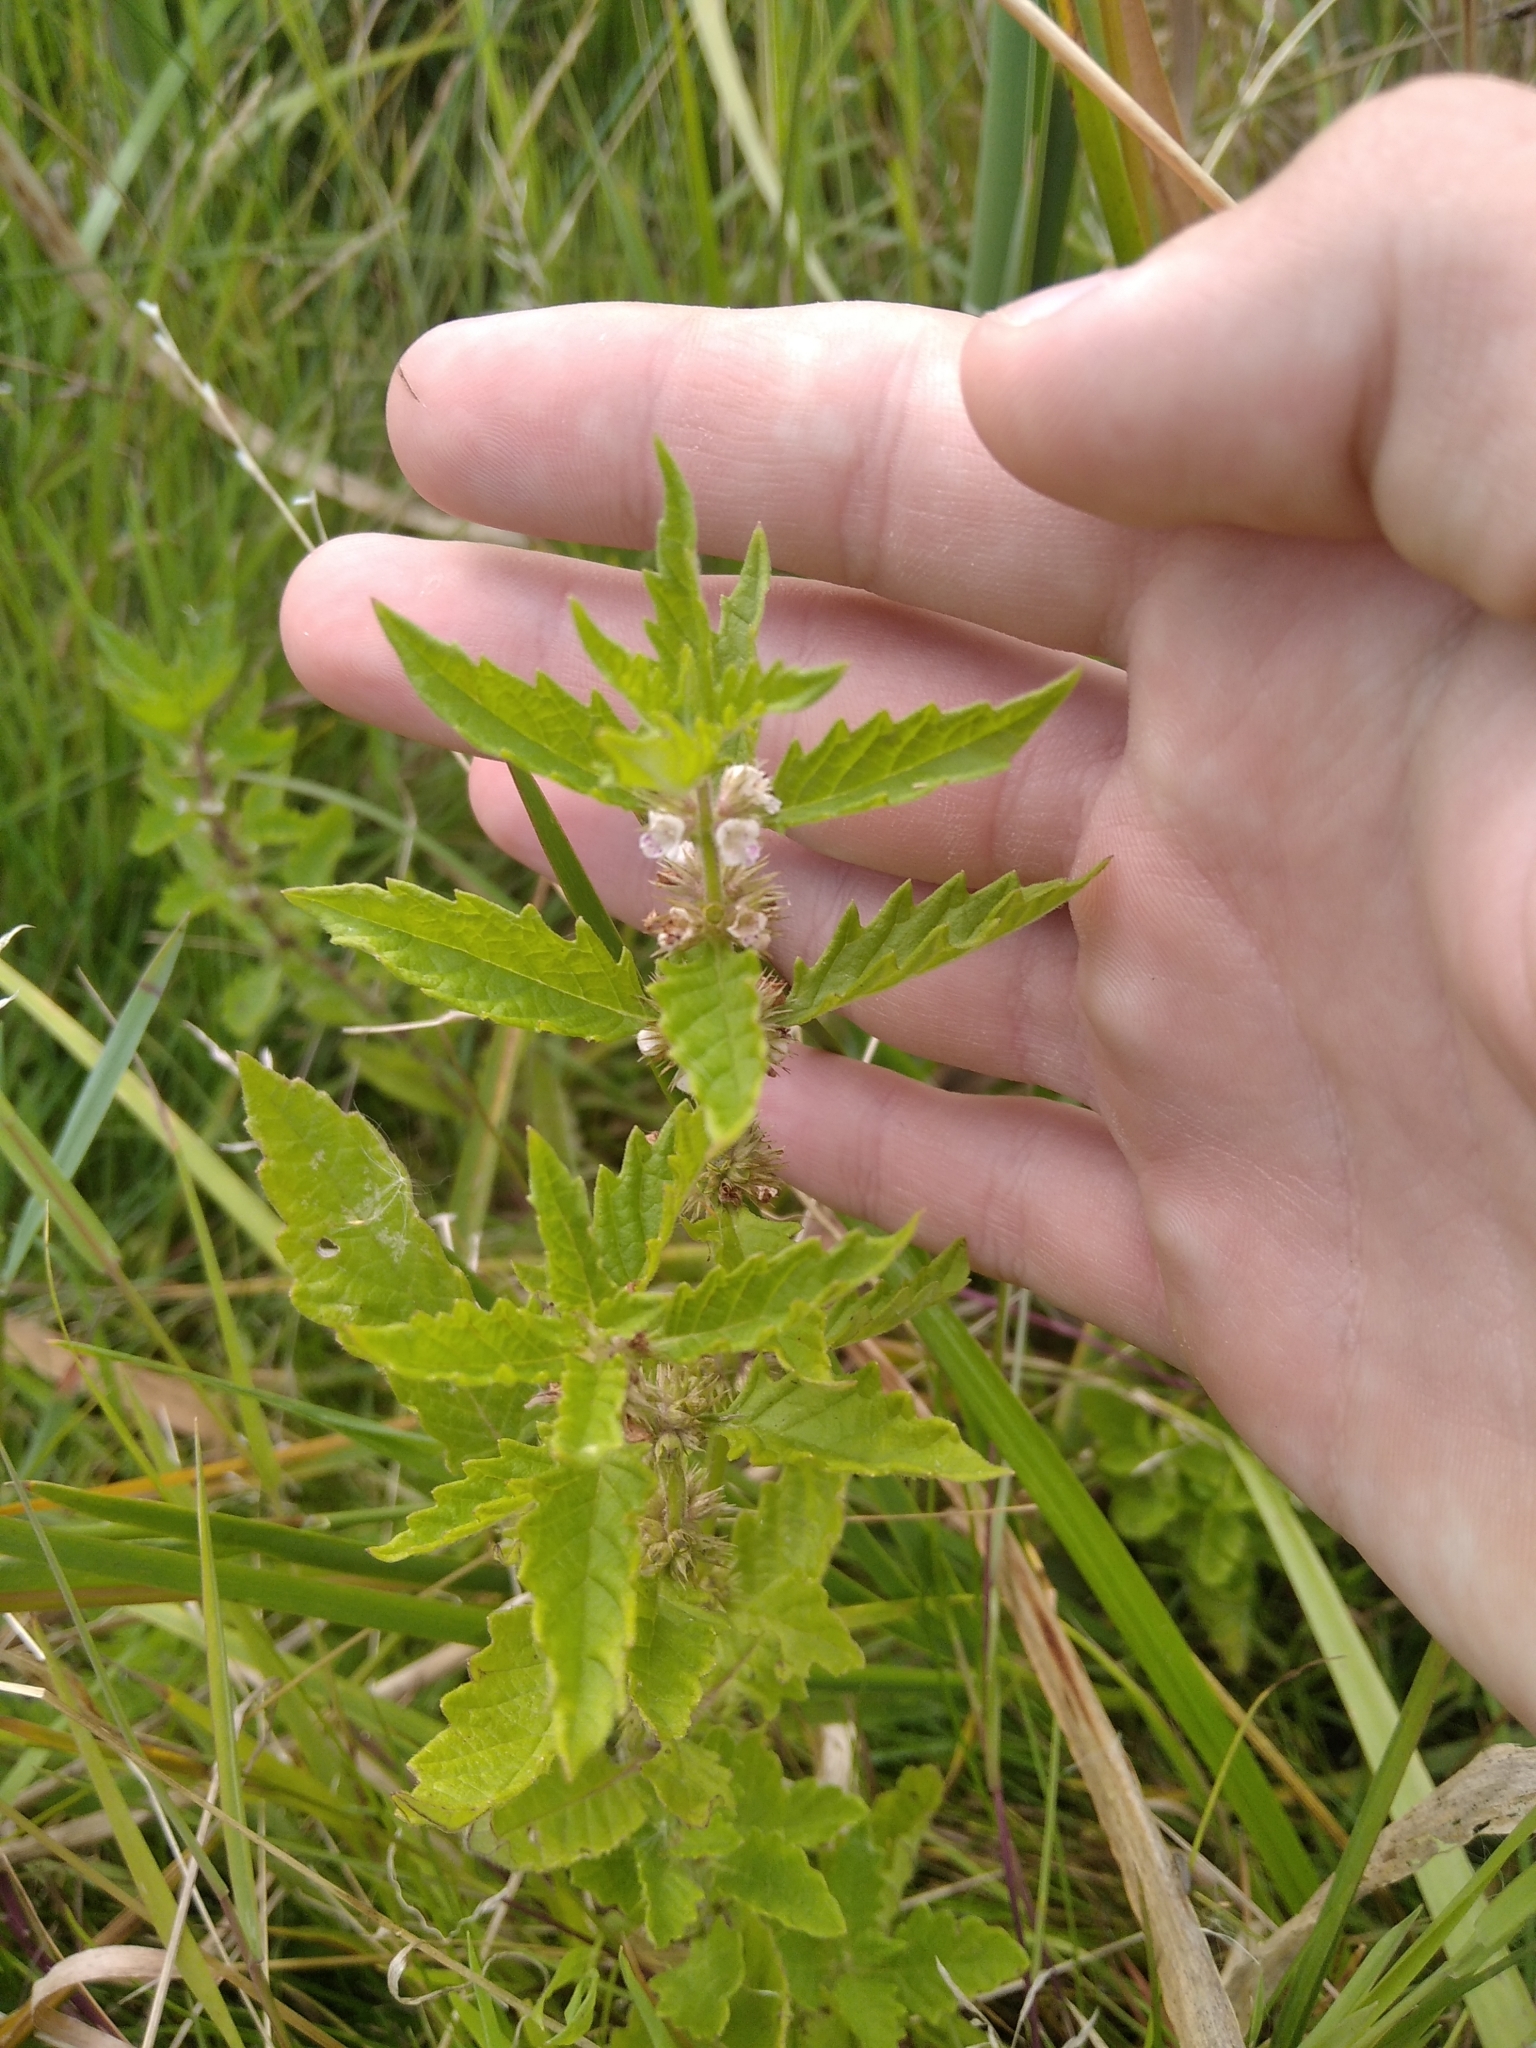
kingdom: Plantae
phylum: Tracheophyta
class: Magnoliopsida
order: Lamiales
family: Lamiaceae
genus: Lycopus
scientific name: Lycopus europaeus
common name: European bugleweed
